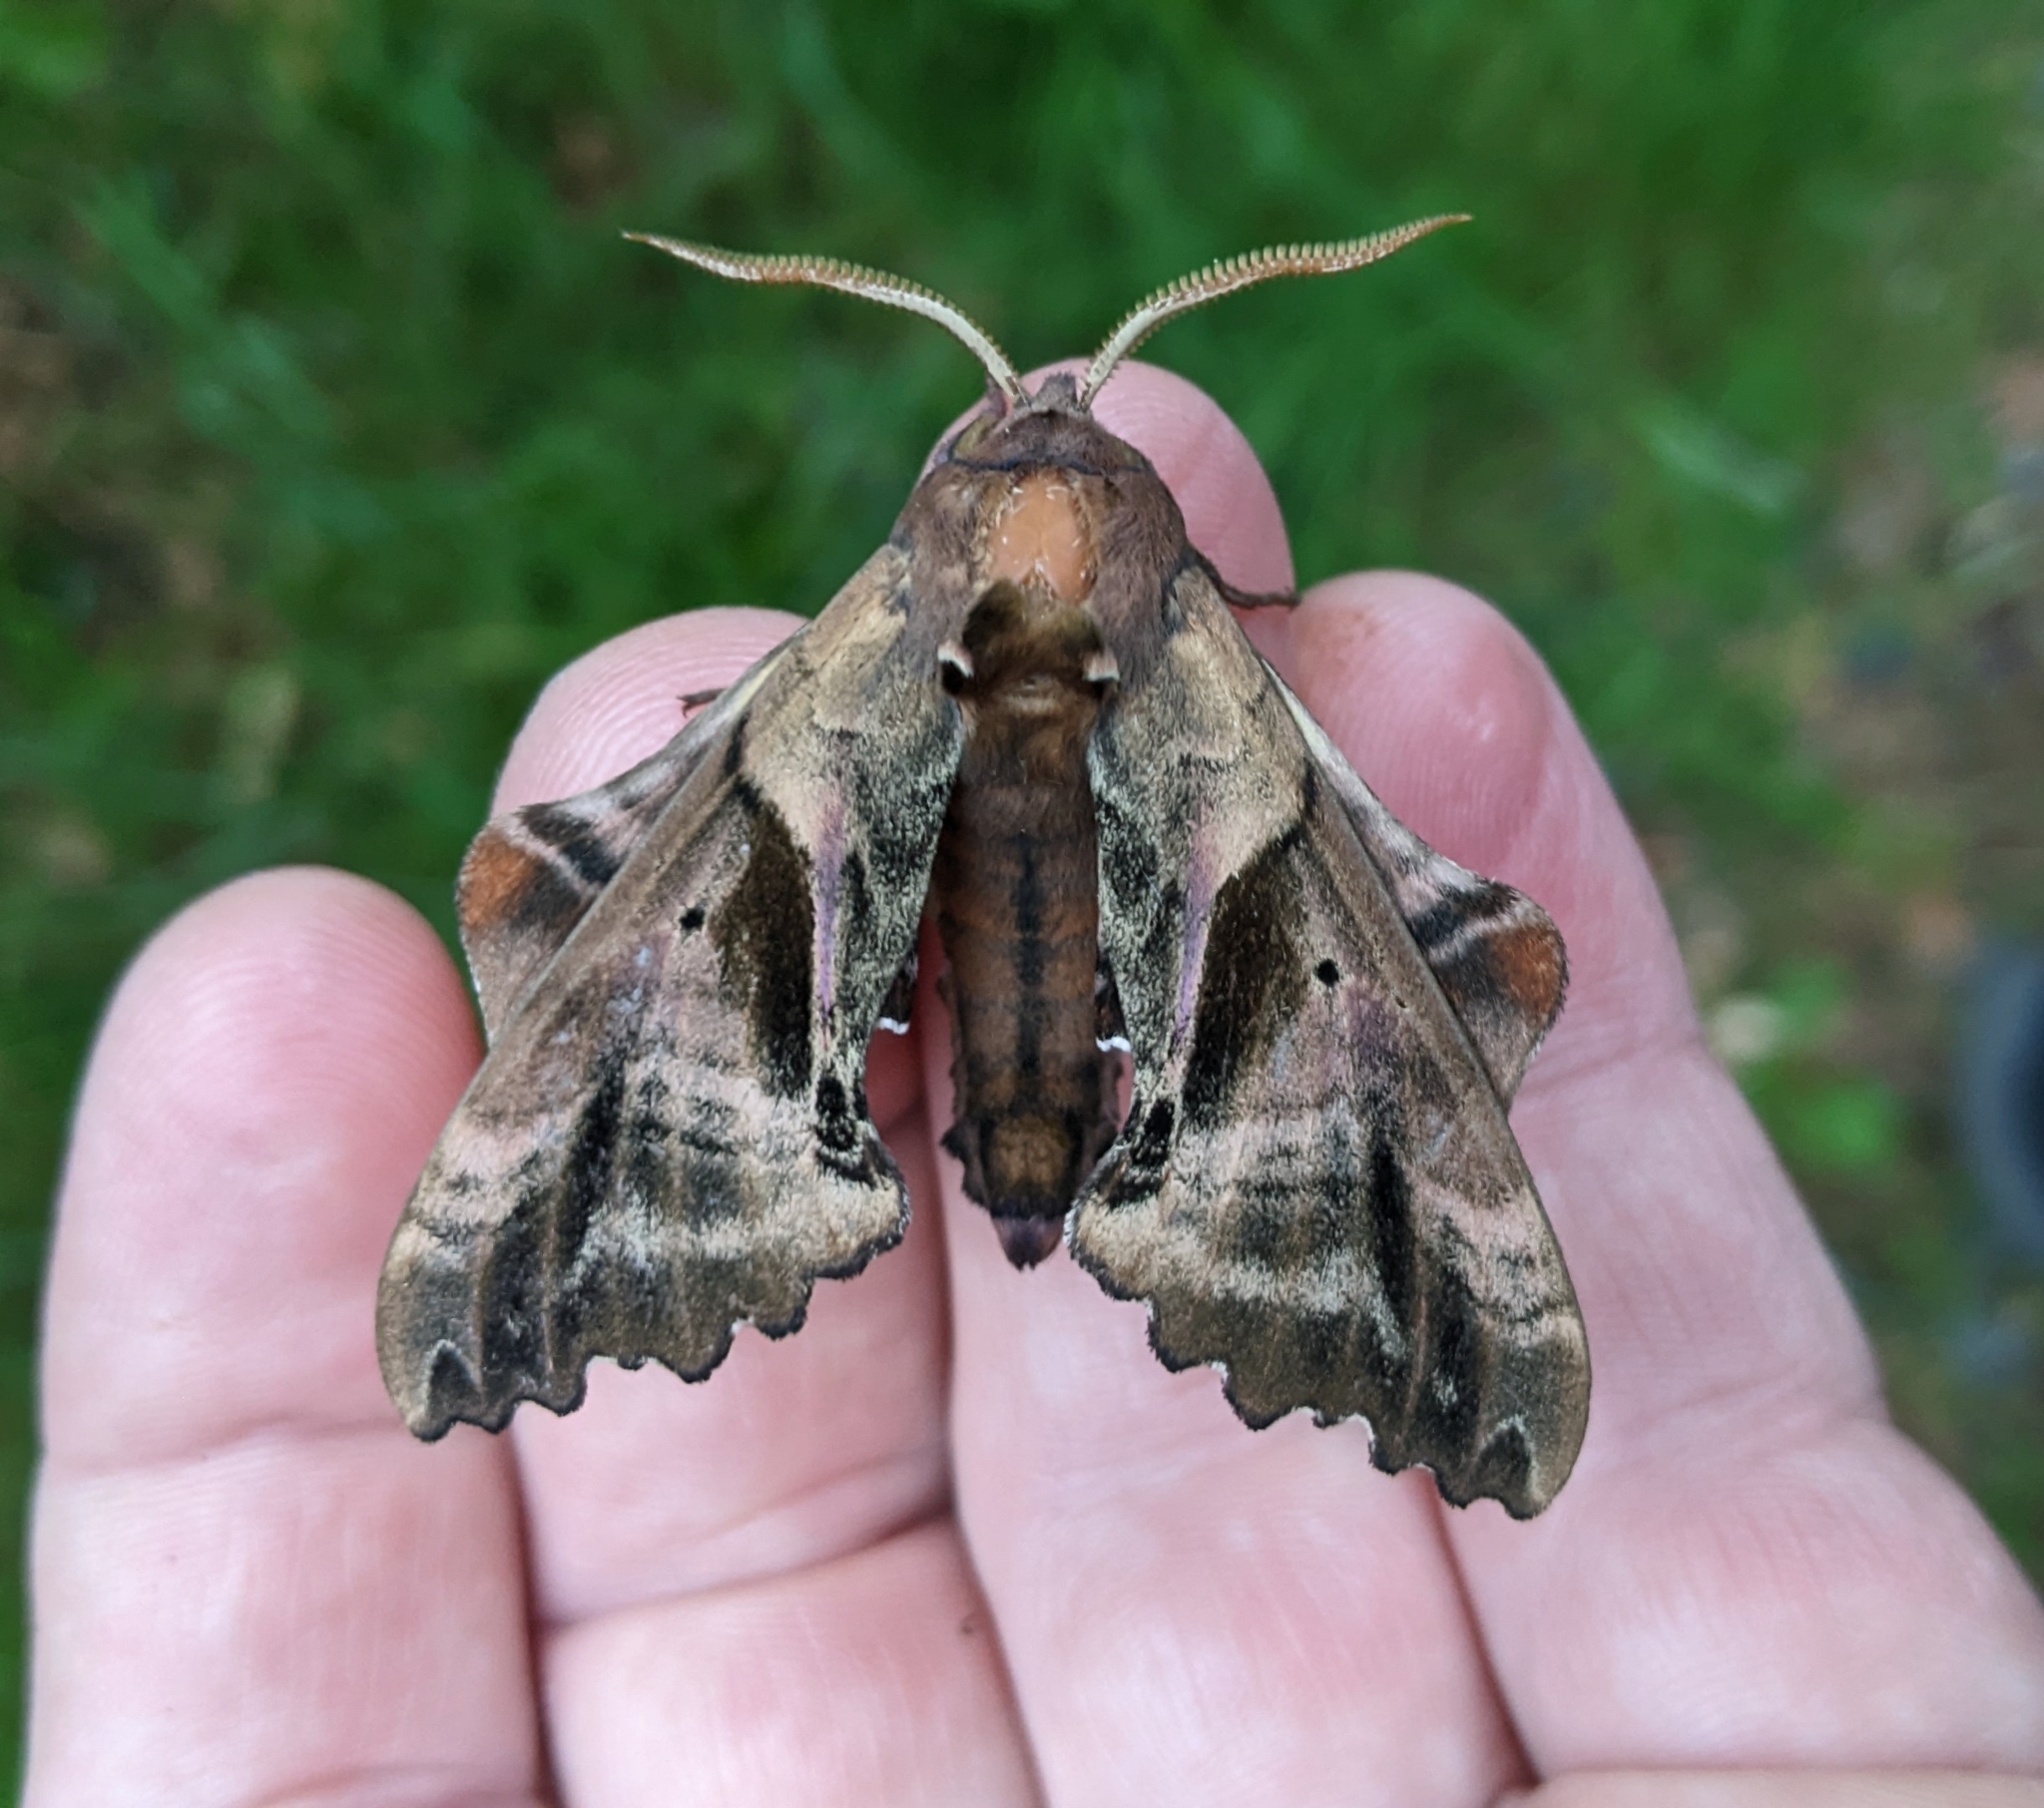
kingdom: Animalia
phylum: Arthropoda
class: Insecta
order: Lepidoptera
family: Sphingidae
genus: Paonias
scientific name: Paonias excaecata
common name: Blind-eyed sphinx
